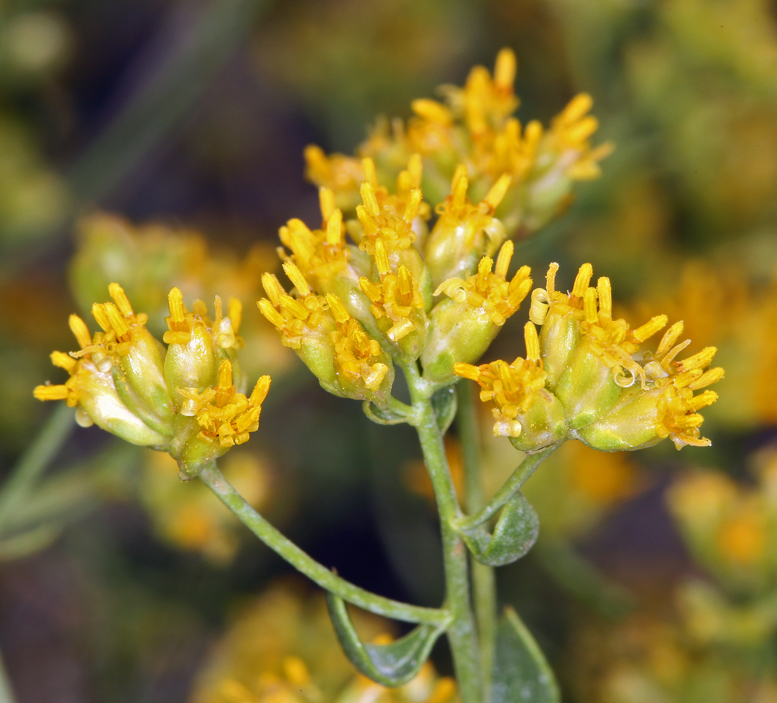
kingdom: Plantae
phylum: Tracheophyta
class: Magnoliopsida
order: Asterales
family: Asteraceae
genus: Amphipappus
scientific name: Amphipappus fremontii
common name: Fremont's chaffbush
